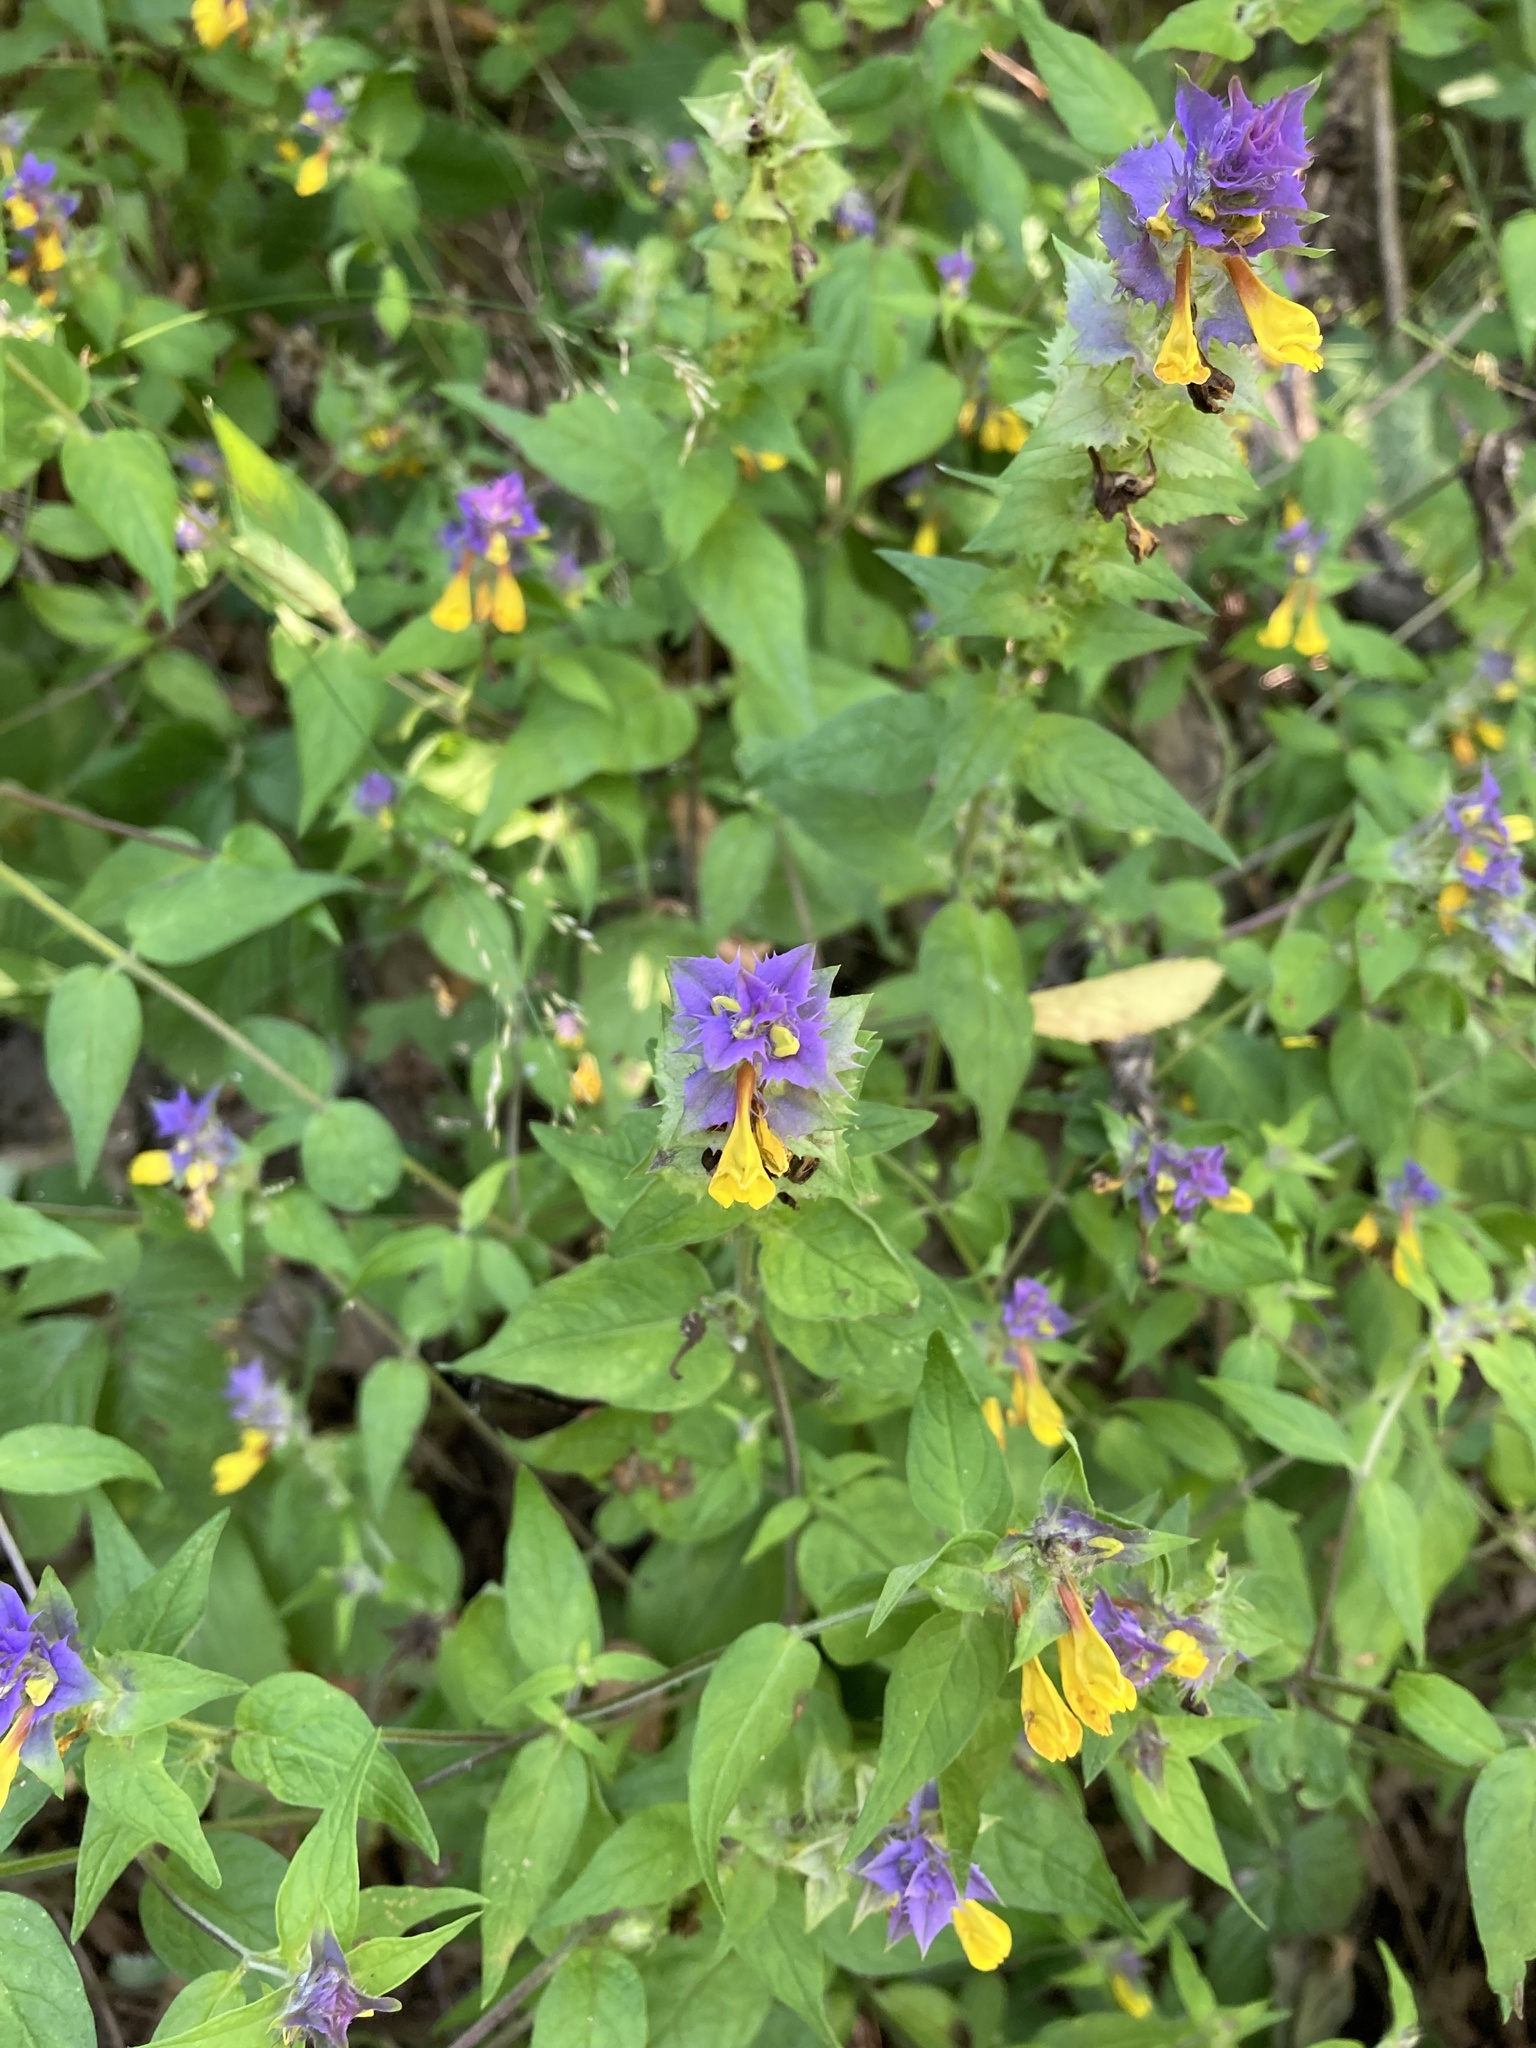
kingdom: Plantae
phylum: Tracheophyta
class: Magnoliopsida
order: Lamiales
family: Orobanchaceae
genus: Melampyrum
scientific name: Melampyrum nemorosum
